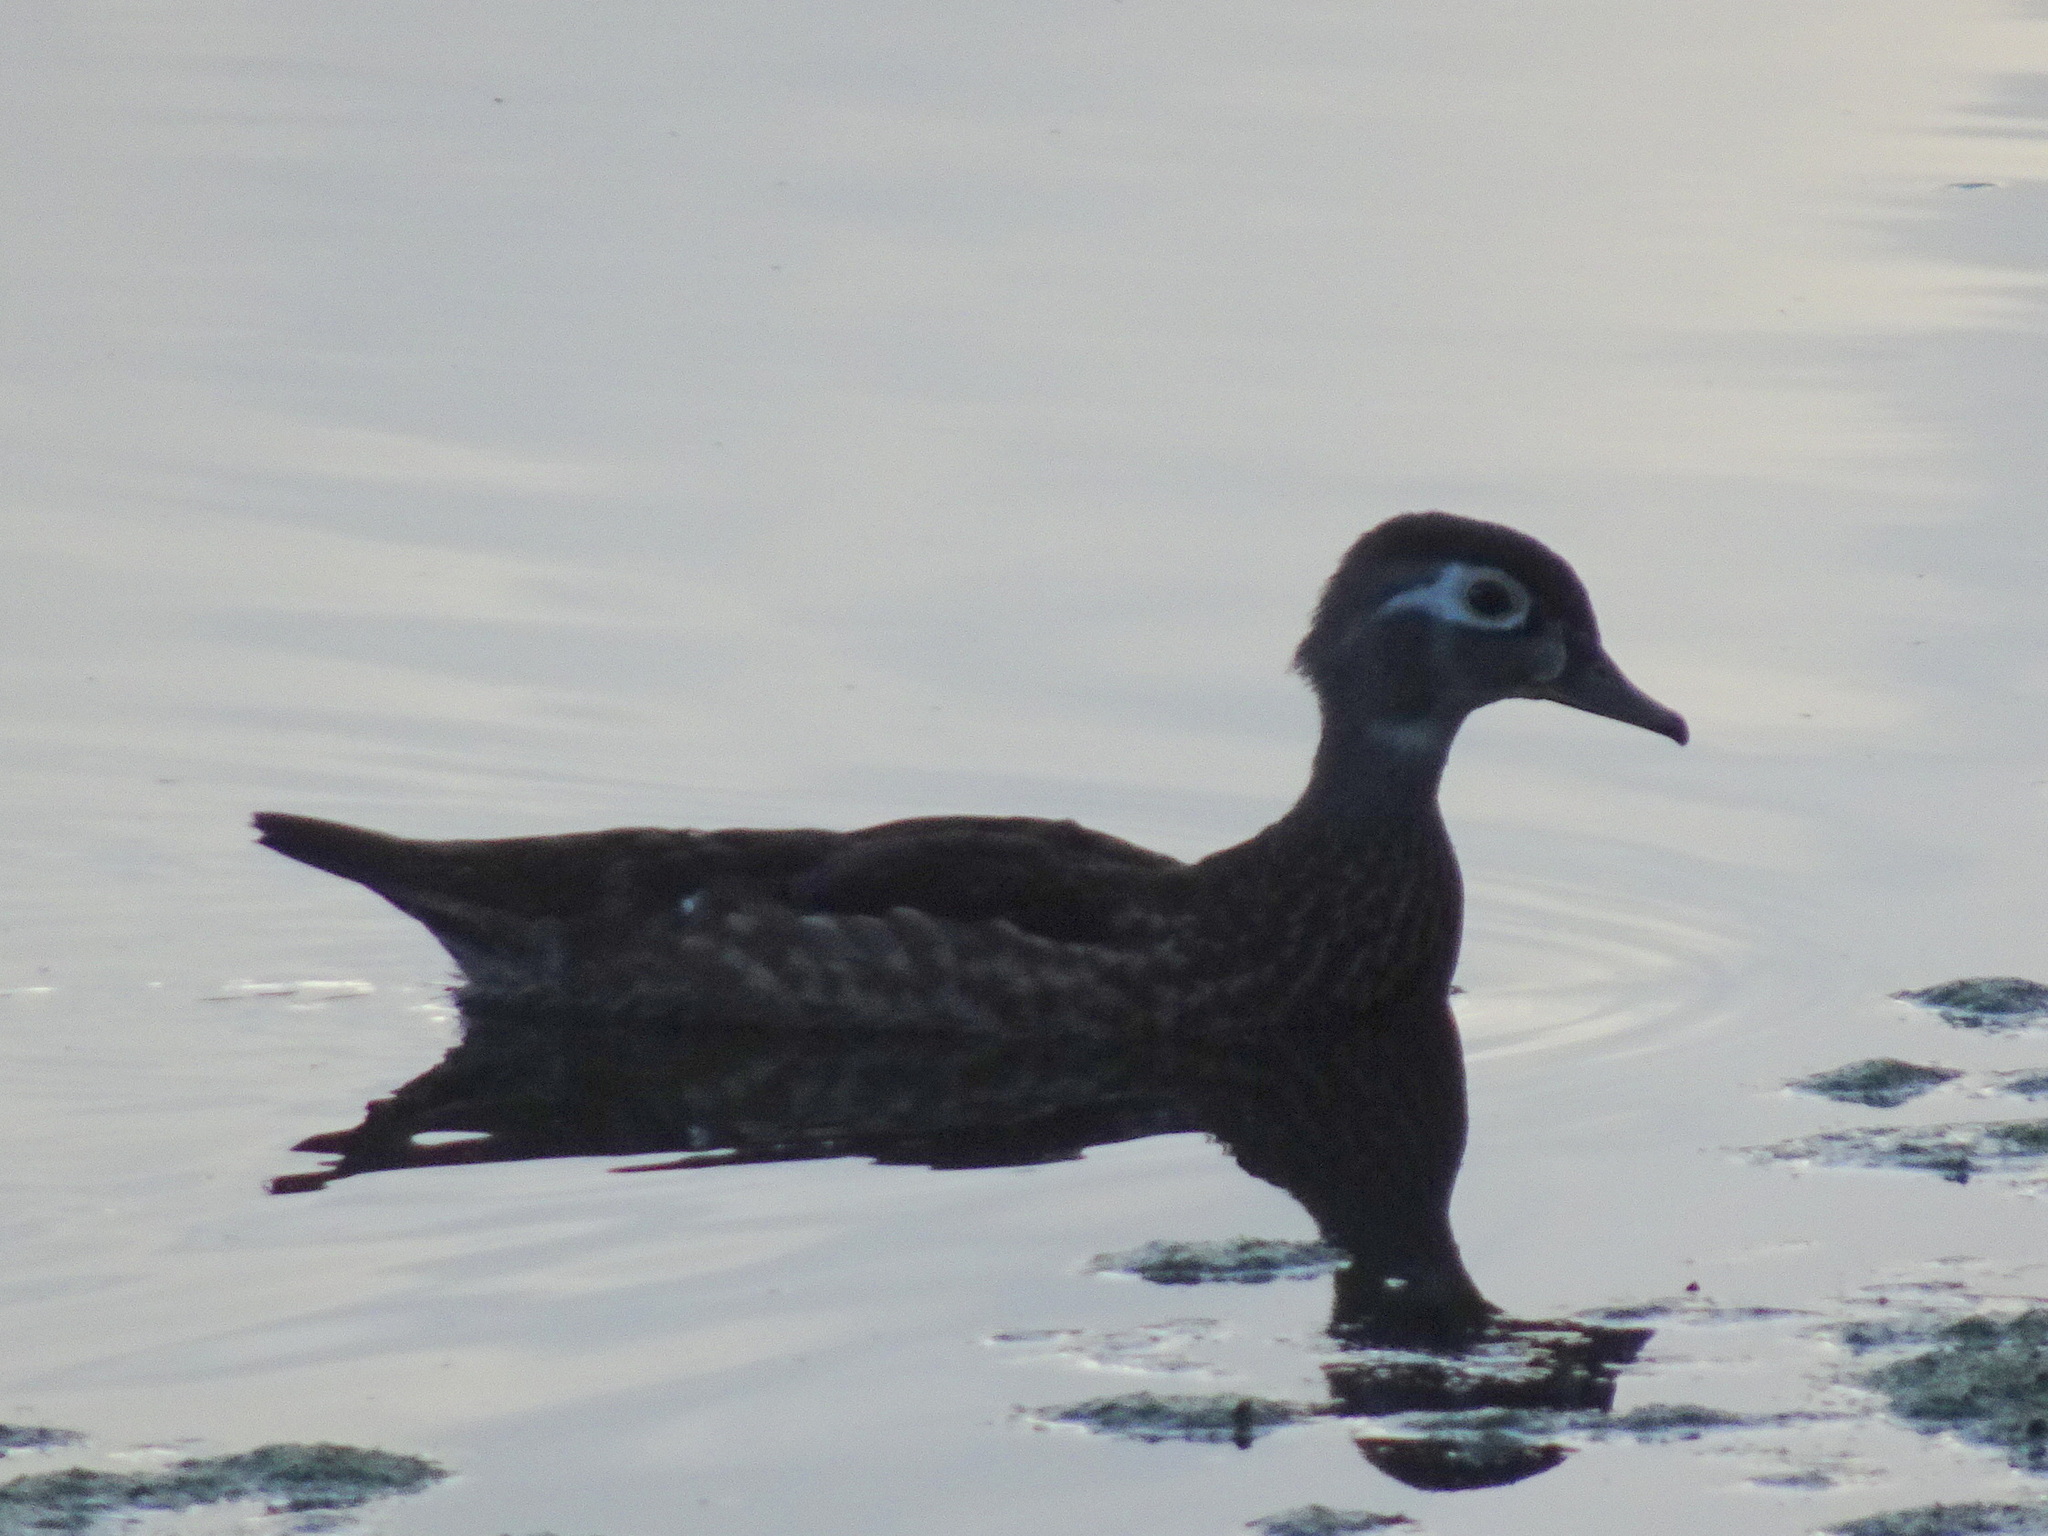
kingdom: Animalia
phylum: Chordata
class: Aves
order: Anseriformes
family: Anatidae
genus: Aix
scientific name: Aix sponsa
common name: Wood duck
